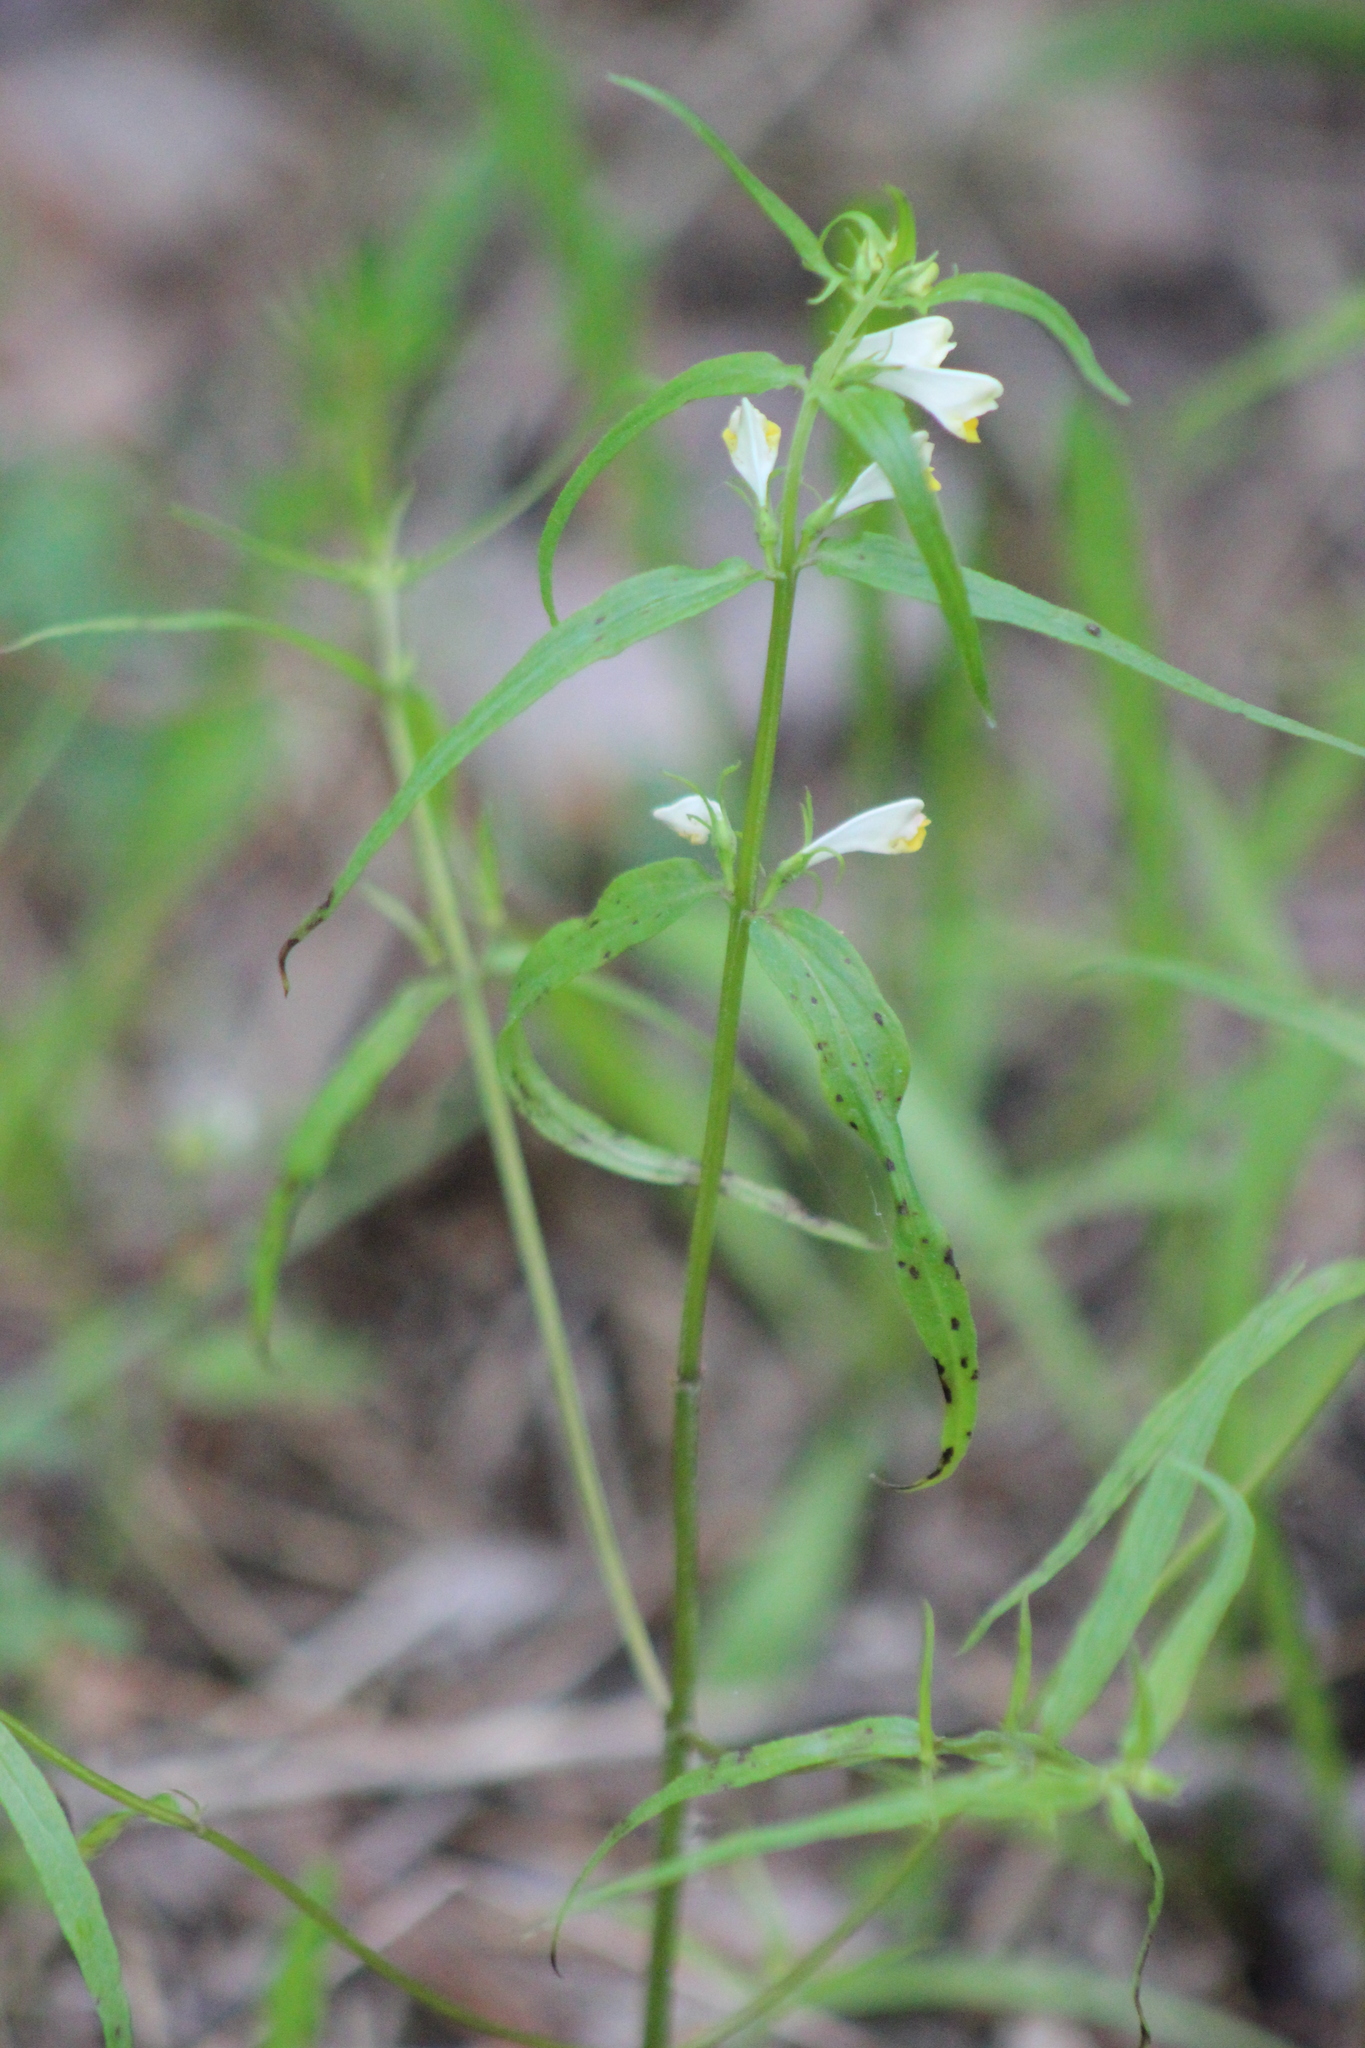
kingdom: Plantae
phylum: Tracheophyta
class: Magnoliopsida
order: Lamiales
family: Orobanchaceae
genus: Melampyrum
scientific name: Melampyrum pratense
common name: Common cow-wheat
